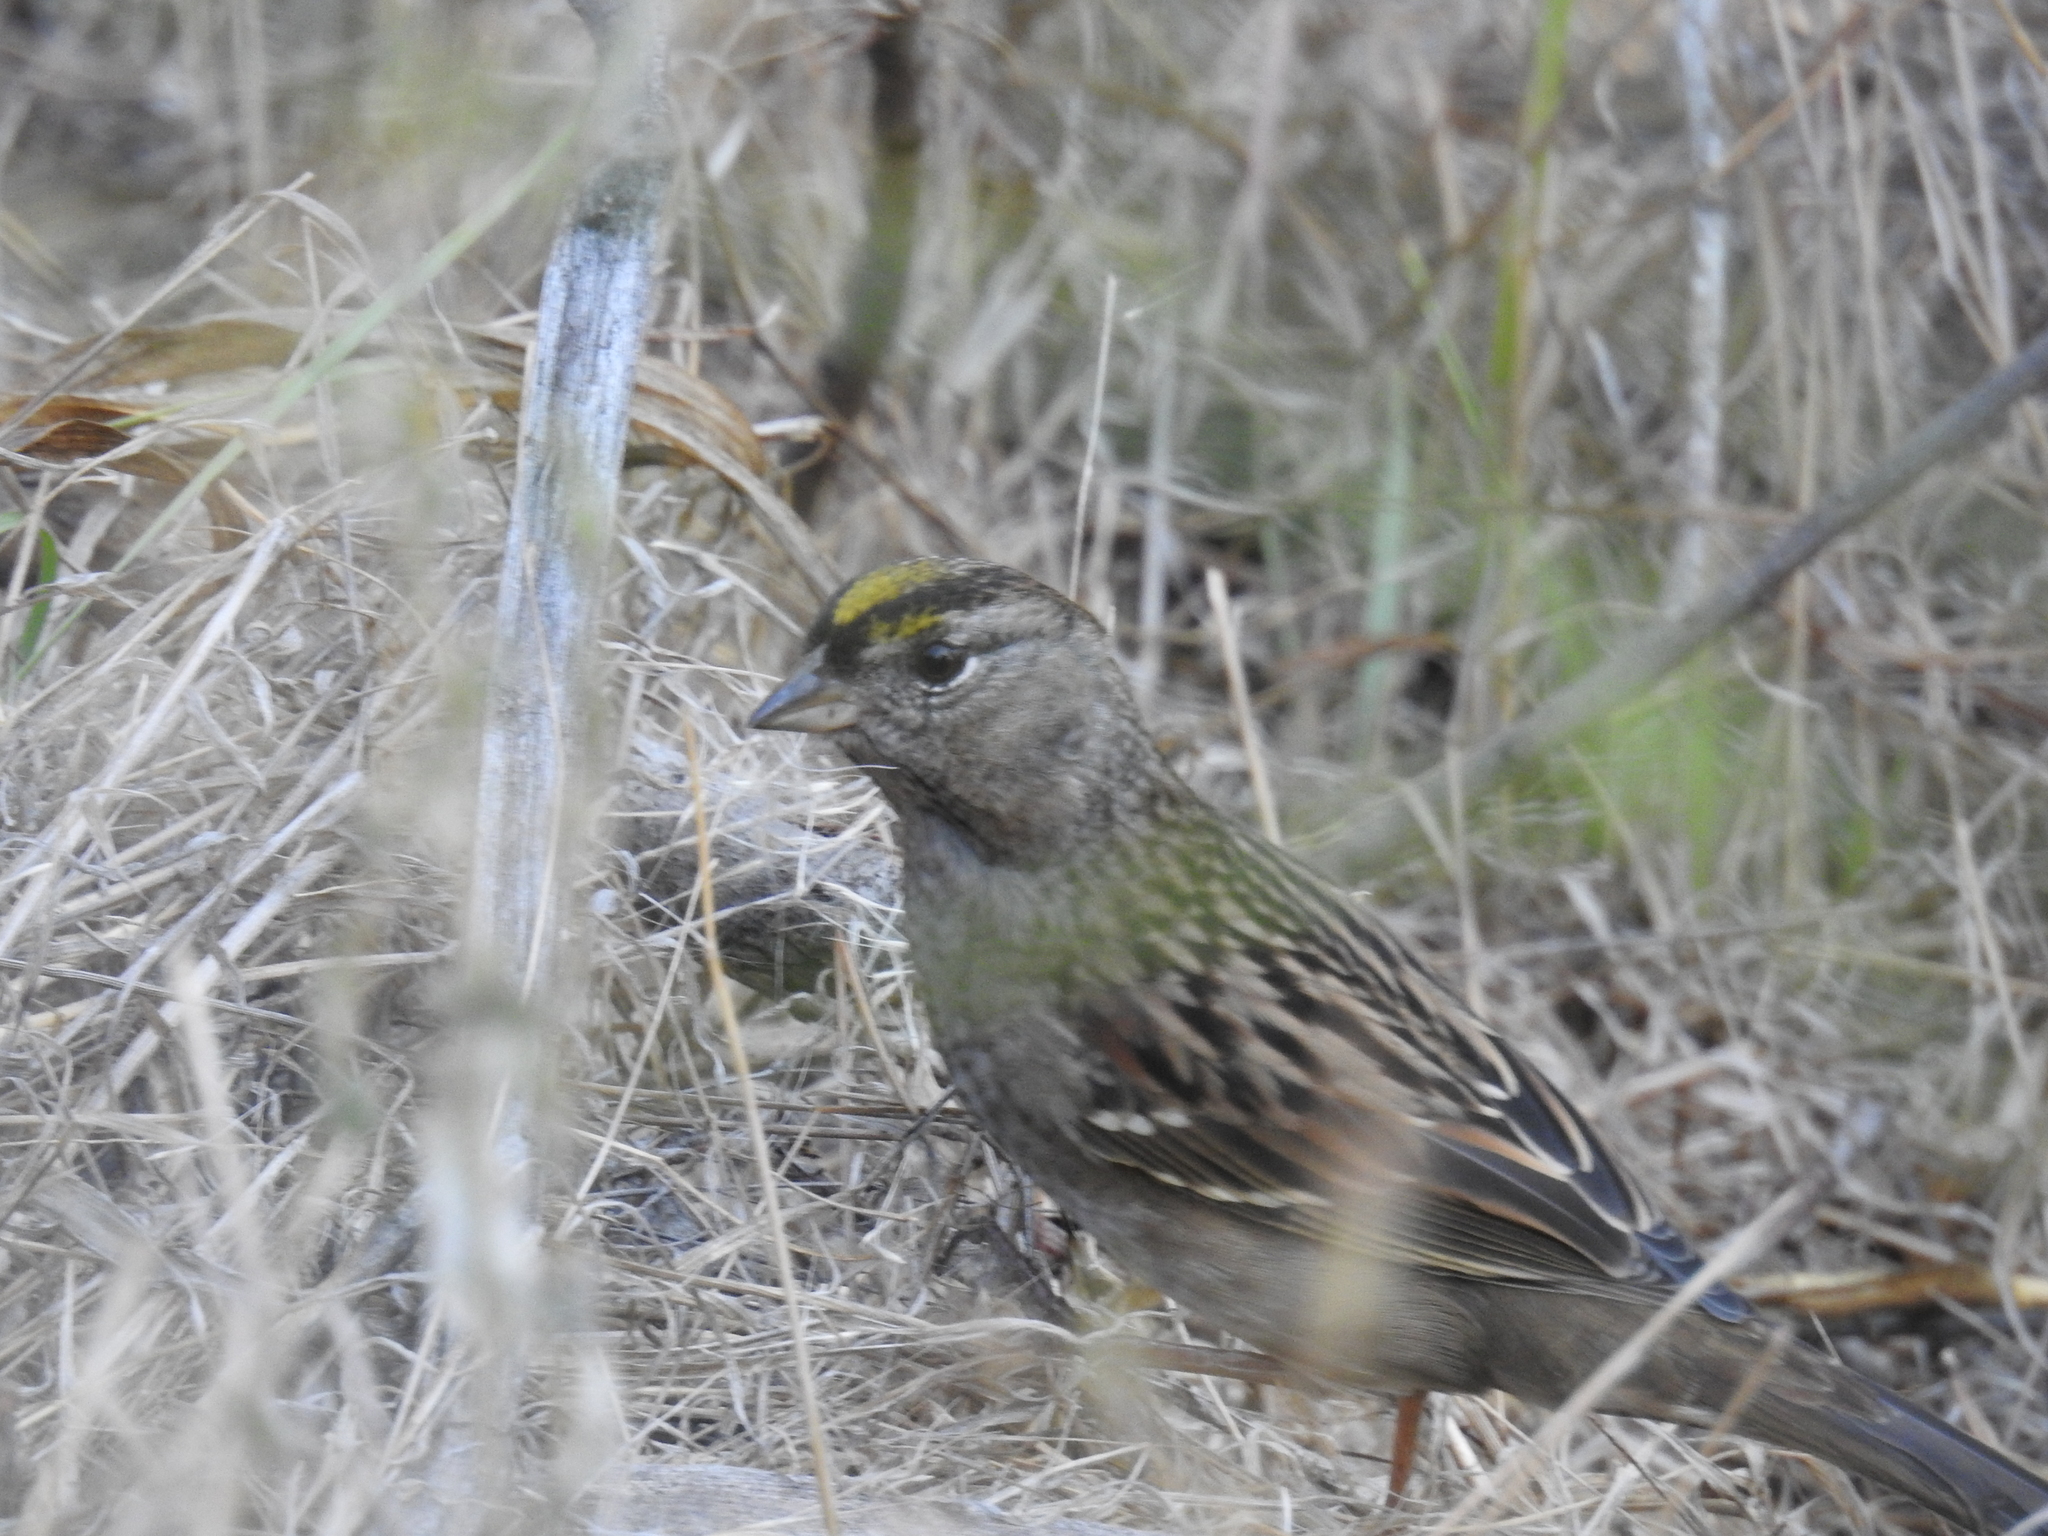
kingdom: Animalia
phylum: Chordata
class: Aves
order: Passeriformes
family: Passerellidae
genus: Zonotrichia
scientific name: Zonotrichia atricapilla
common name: Golden-crowned sparrow
